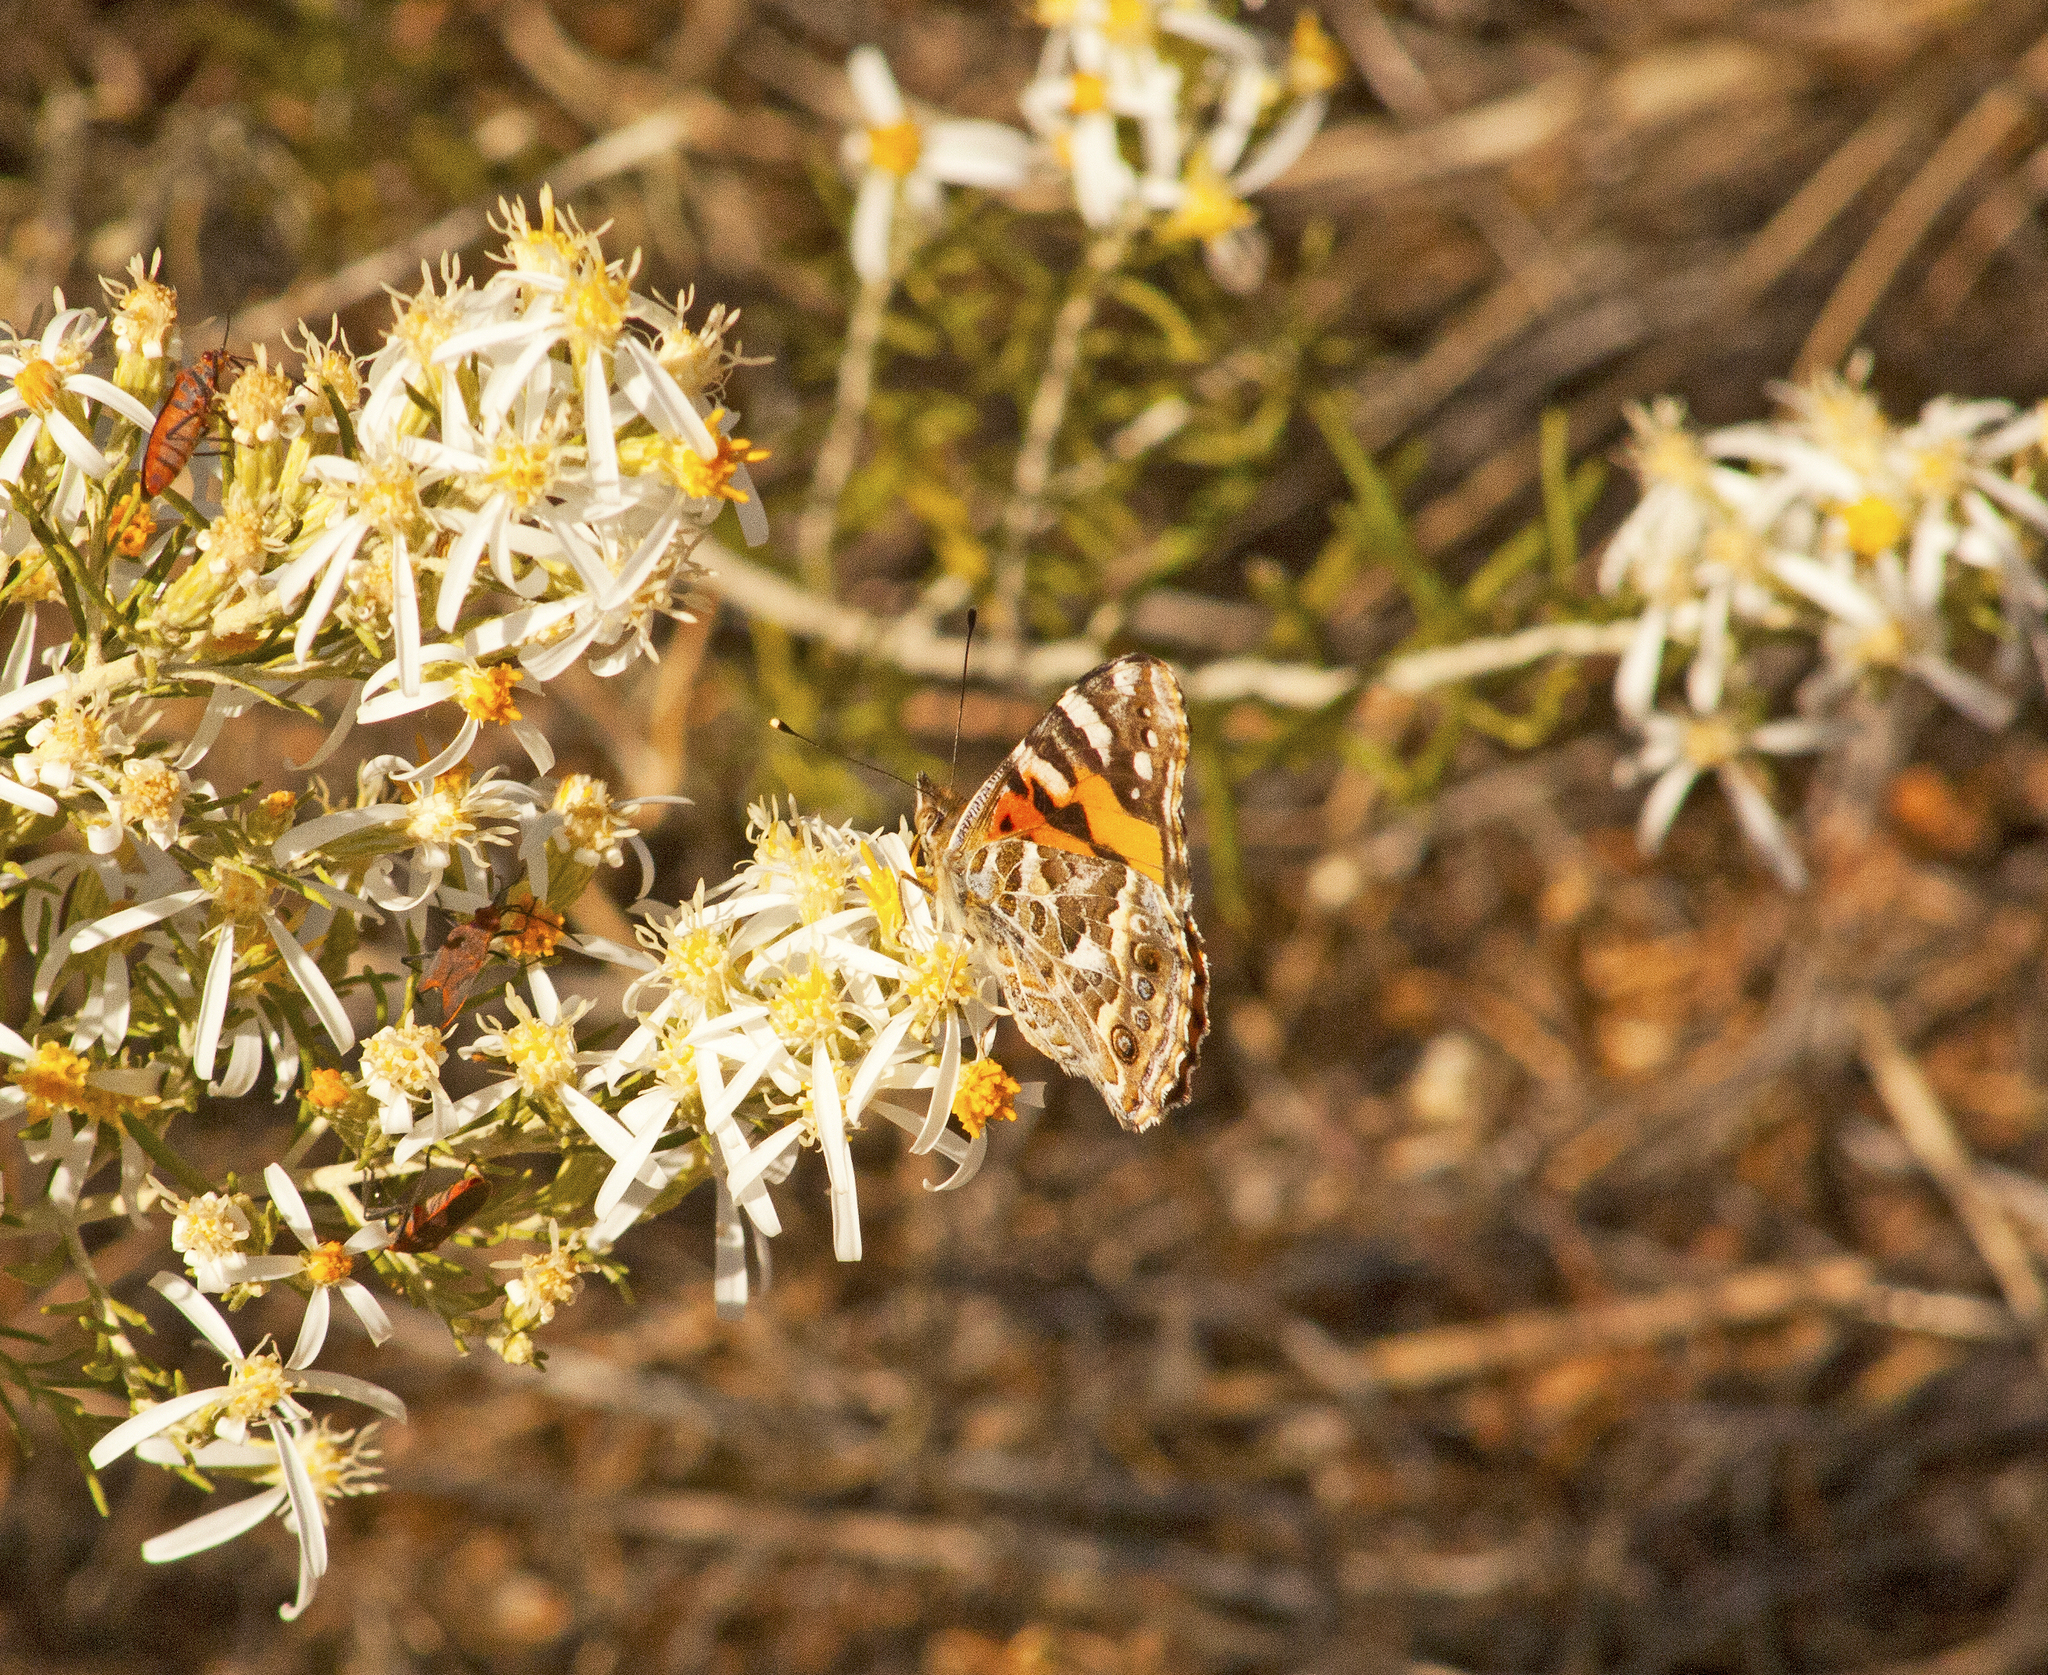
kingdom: Animalia
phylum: Arthropoda
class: Insecta
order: Lepidoptera
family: Nymphalidae
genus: Vanessa
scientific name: Vanessa kershawi
